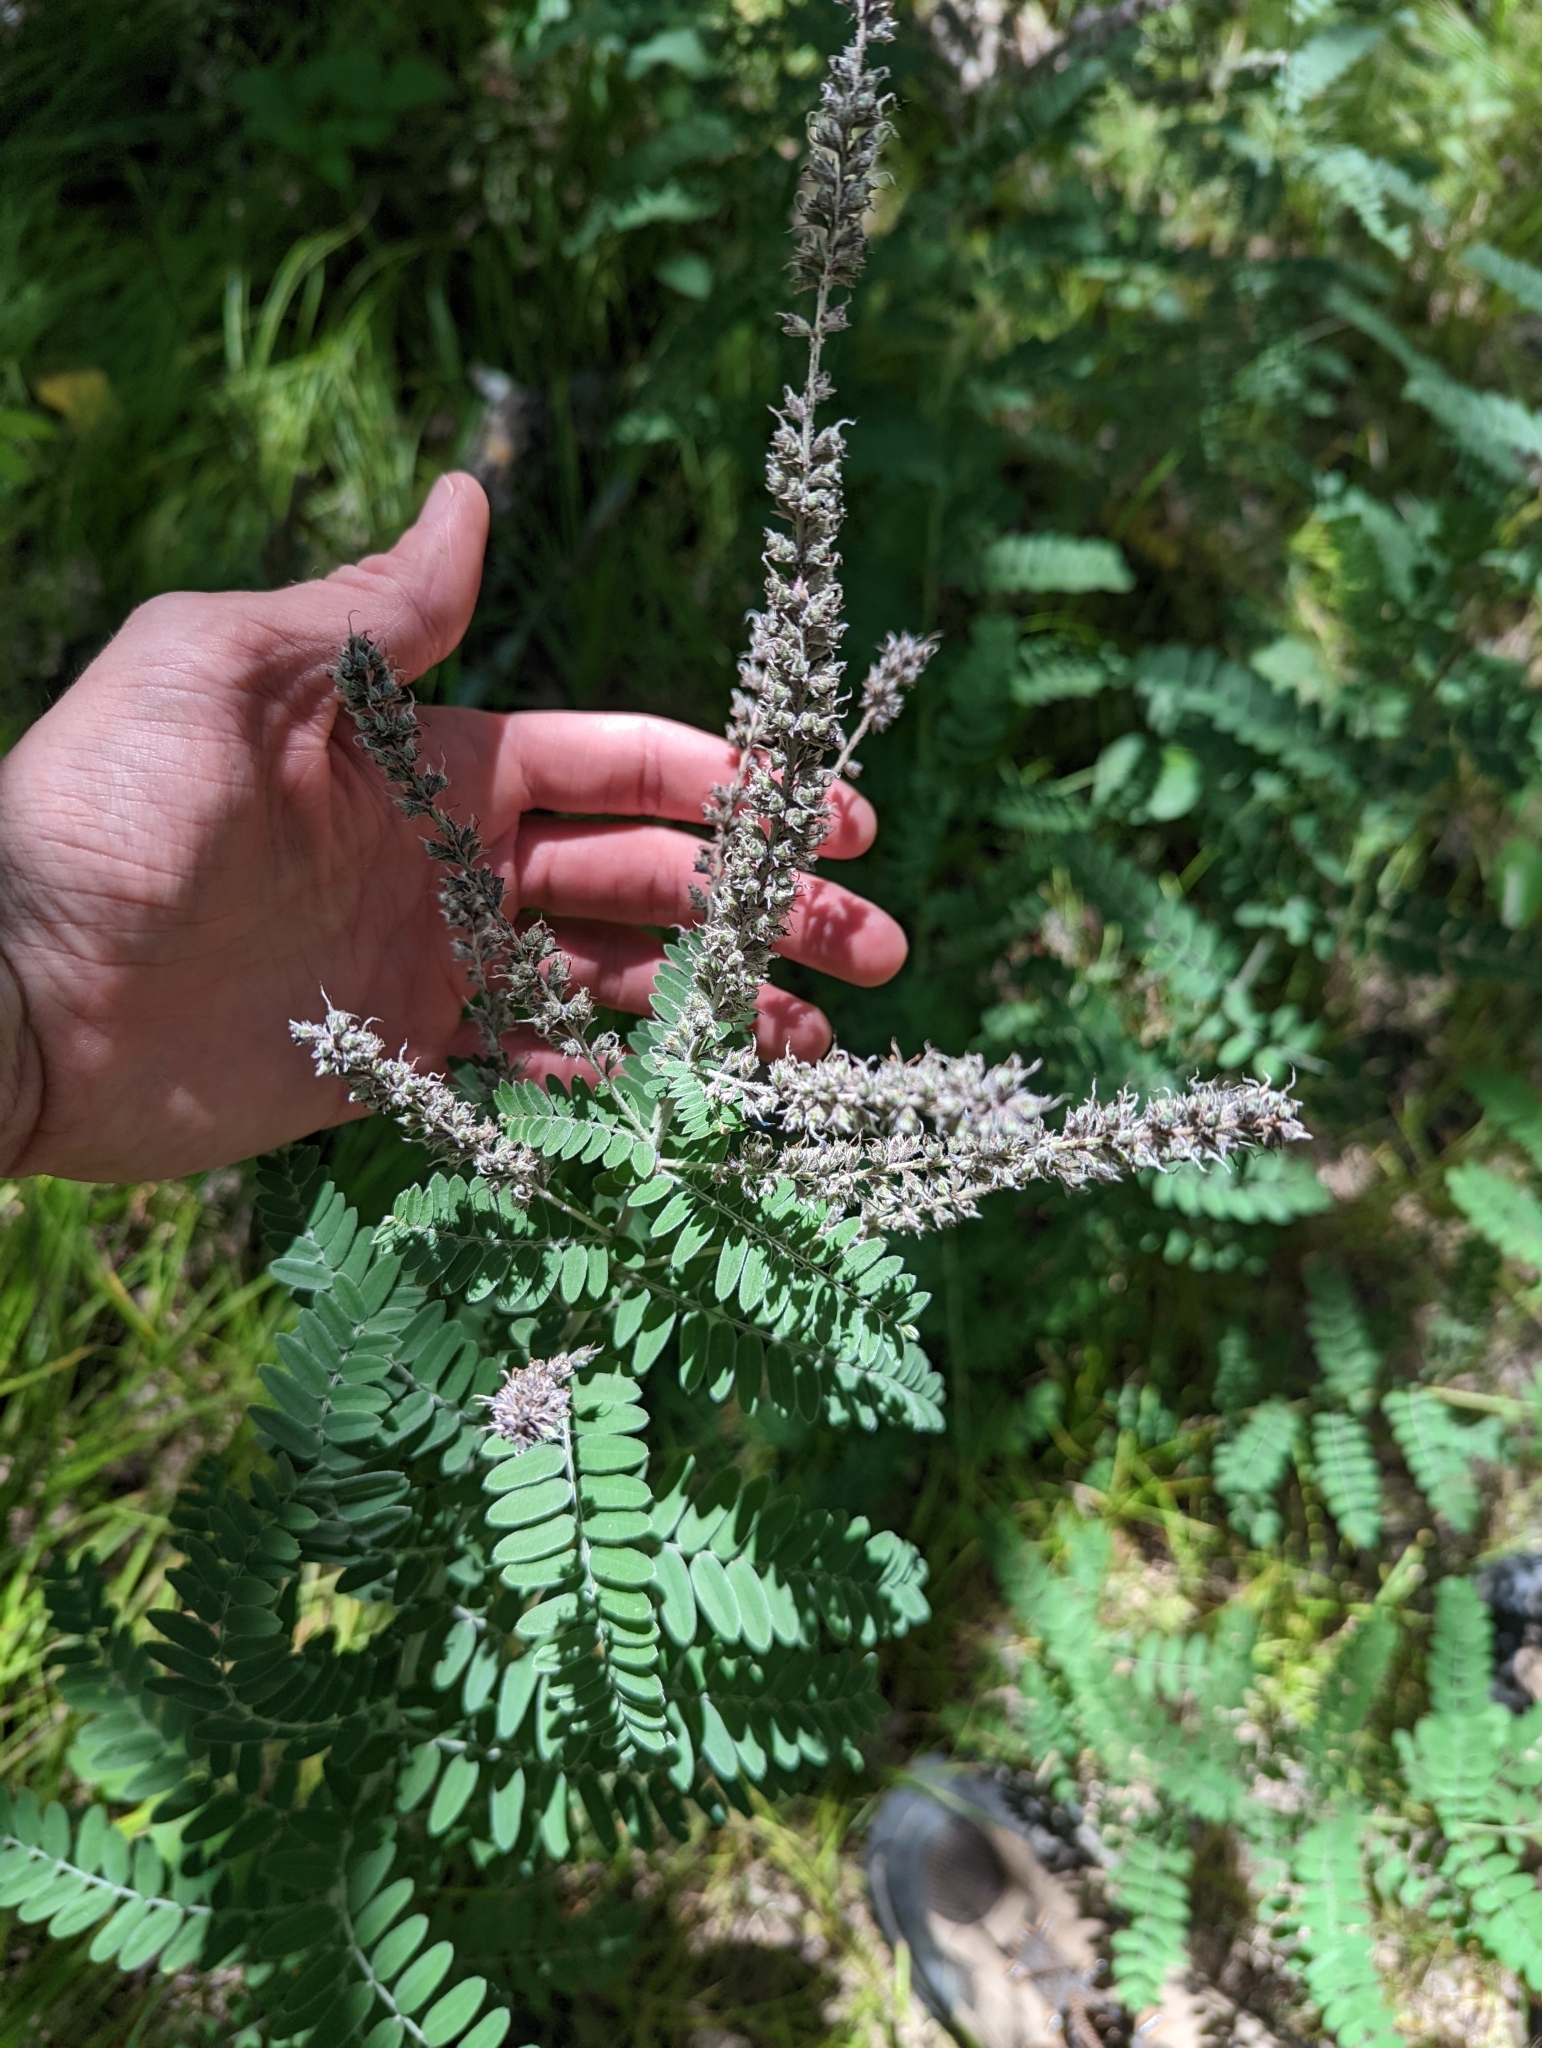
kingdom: Plantae
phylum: Tracheophyta
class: Magnoliopsida
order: Fabales
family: Fabaceae
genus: Amorpha
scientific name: Amorpha canescens
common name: Leadplant
